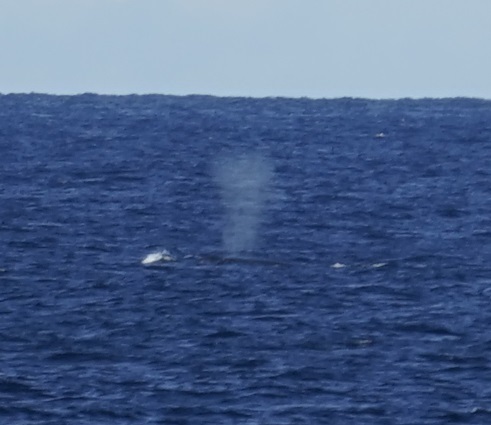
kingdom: Animalia
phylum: Chordata
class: Mammalia
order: Cetacea
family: Balaenopteridae
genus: Megaptera
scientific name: Megaptera novaeangliae
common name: Humpback whale
